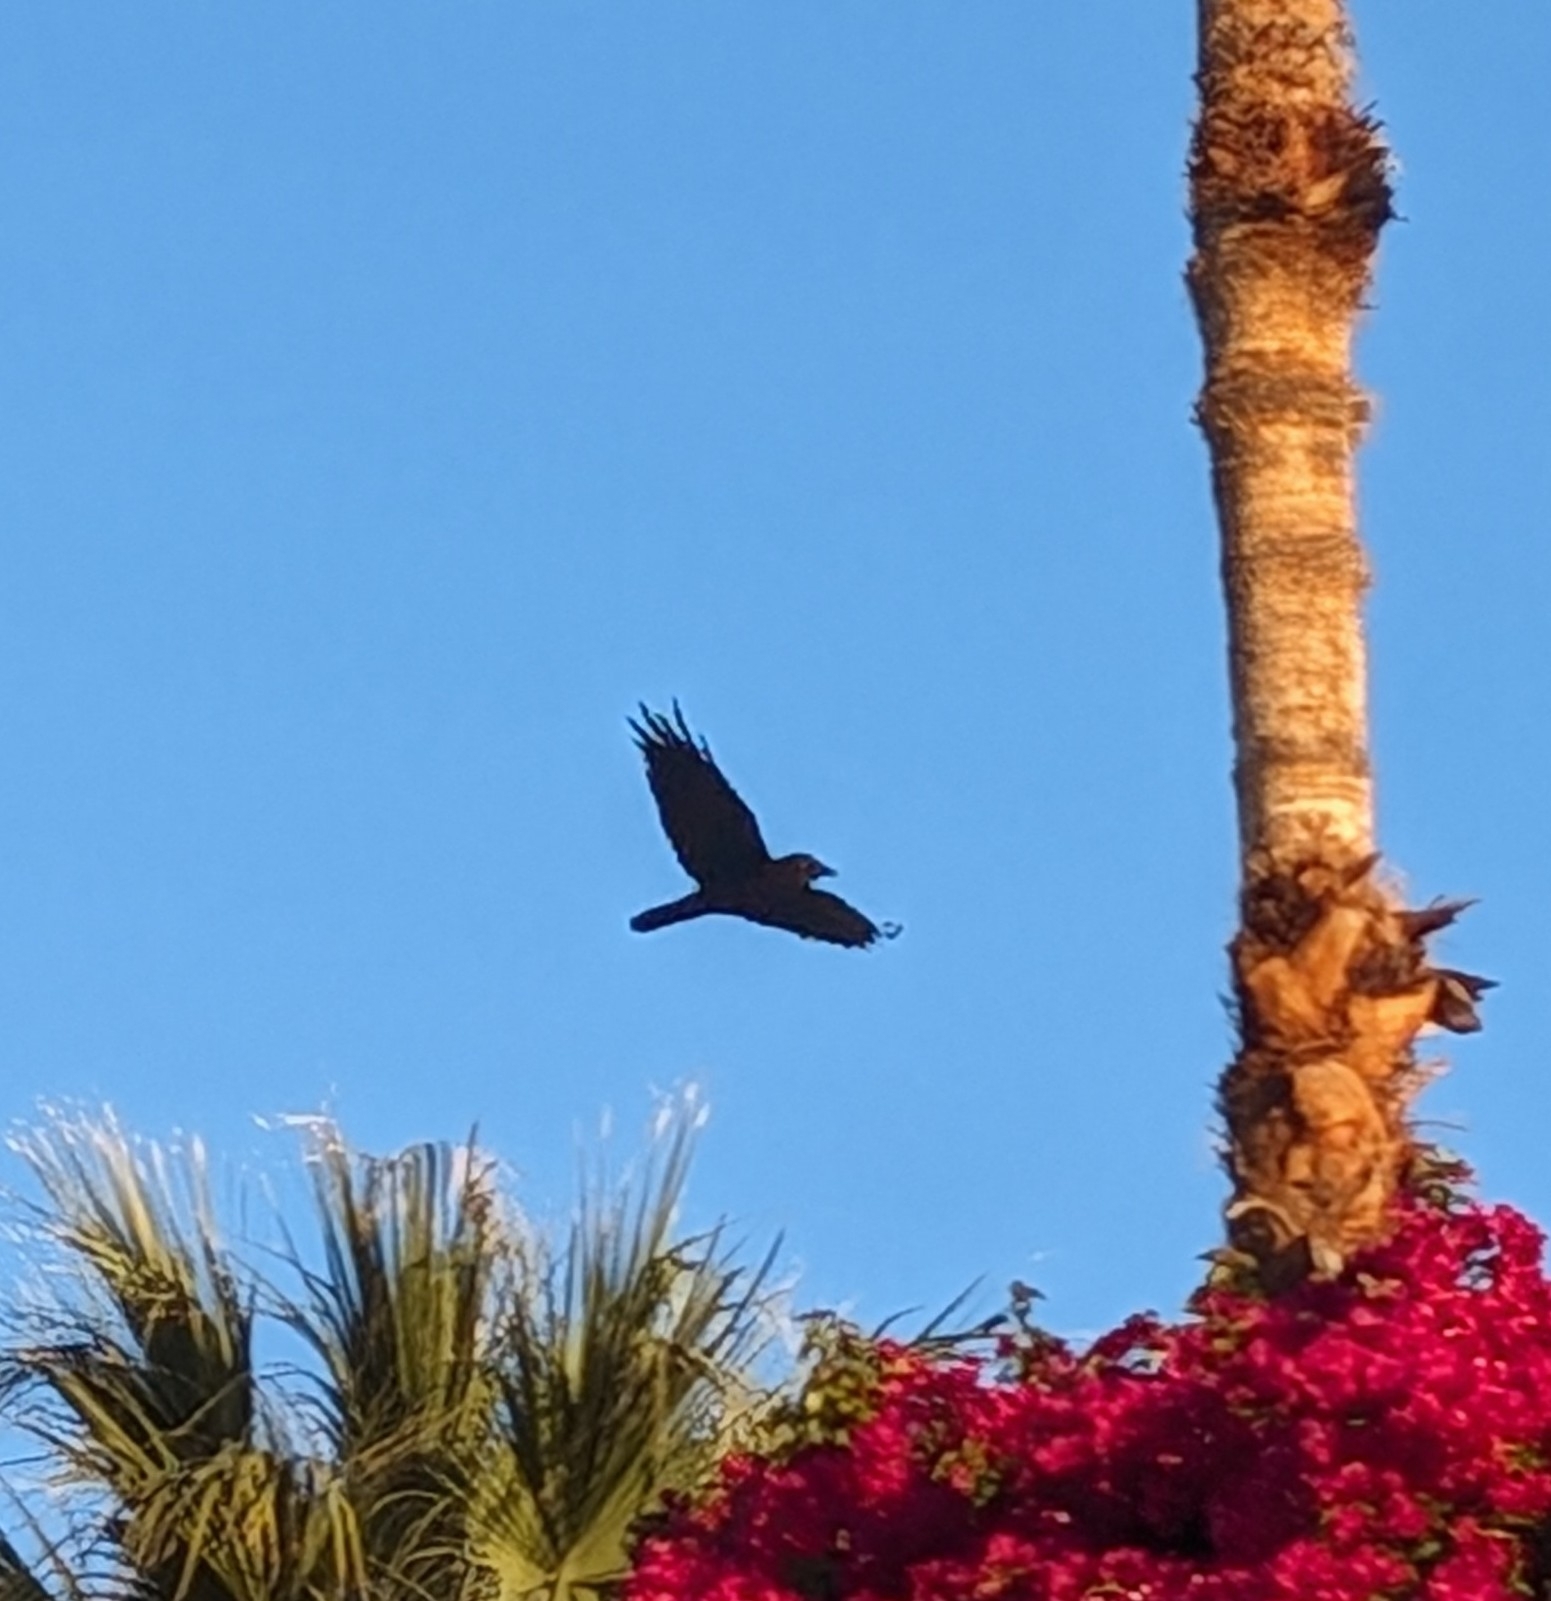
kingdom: Animalia
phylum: Chordata
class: Aves
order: Passeriformes
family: Corvidae
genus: Corvus
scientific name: Corvus corax
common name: Common raven
